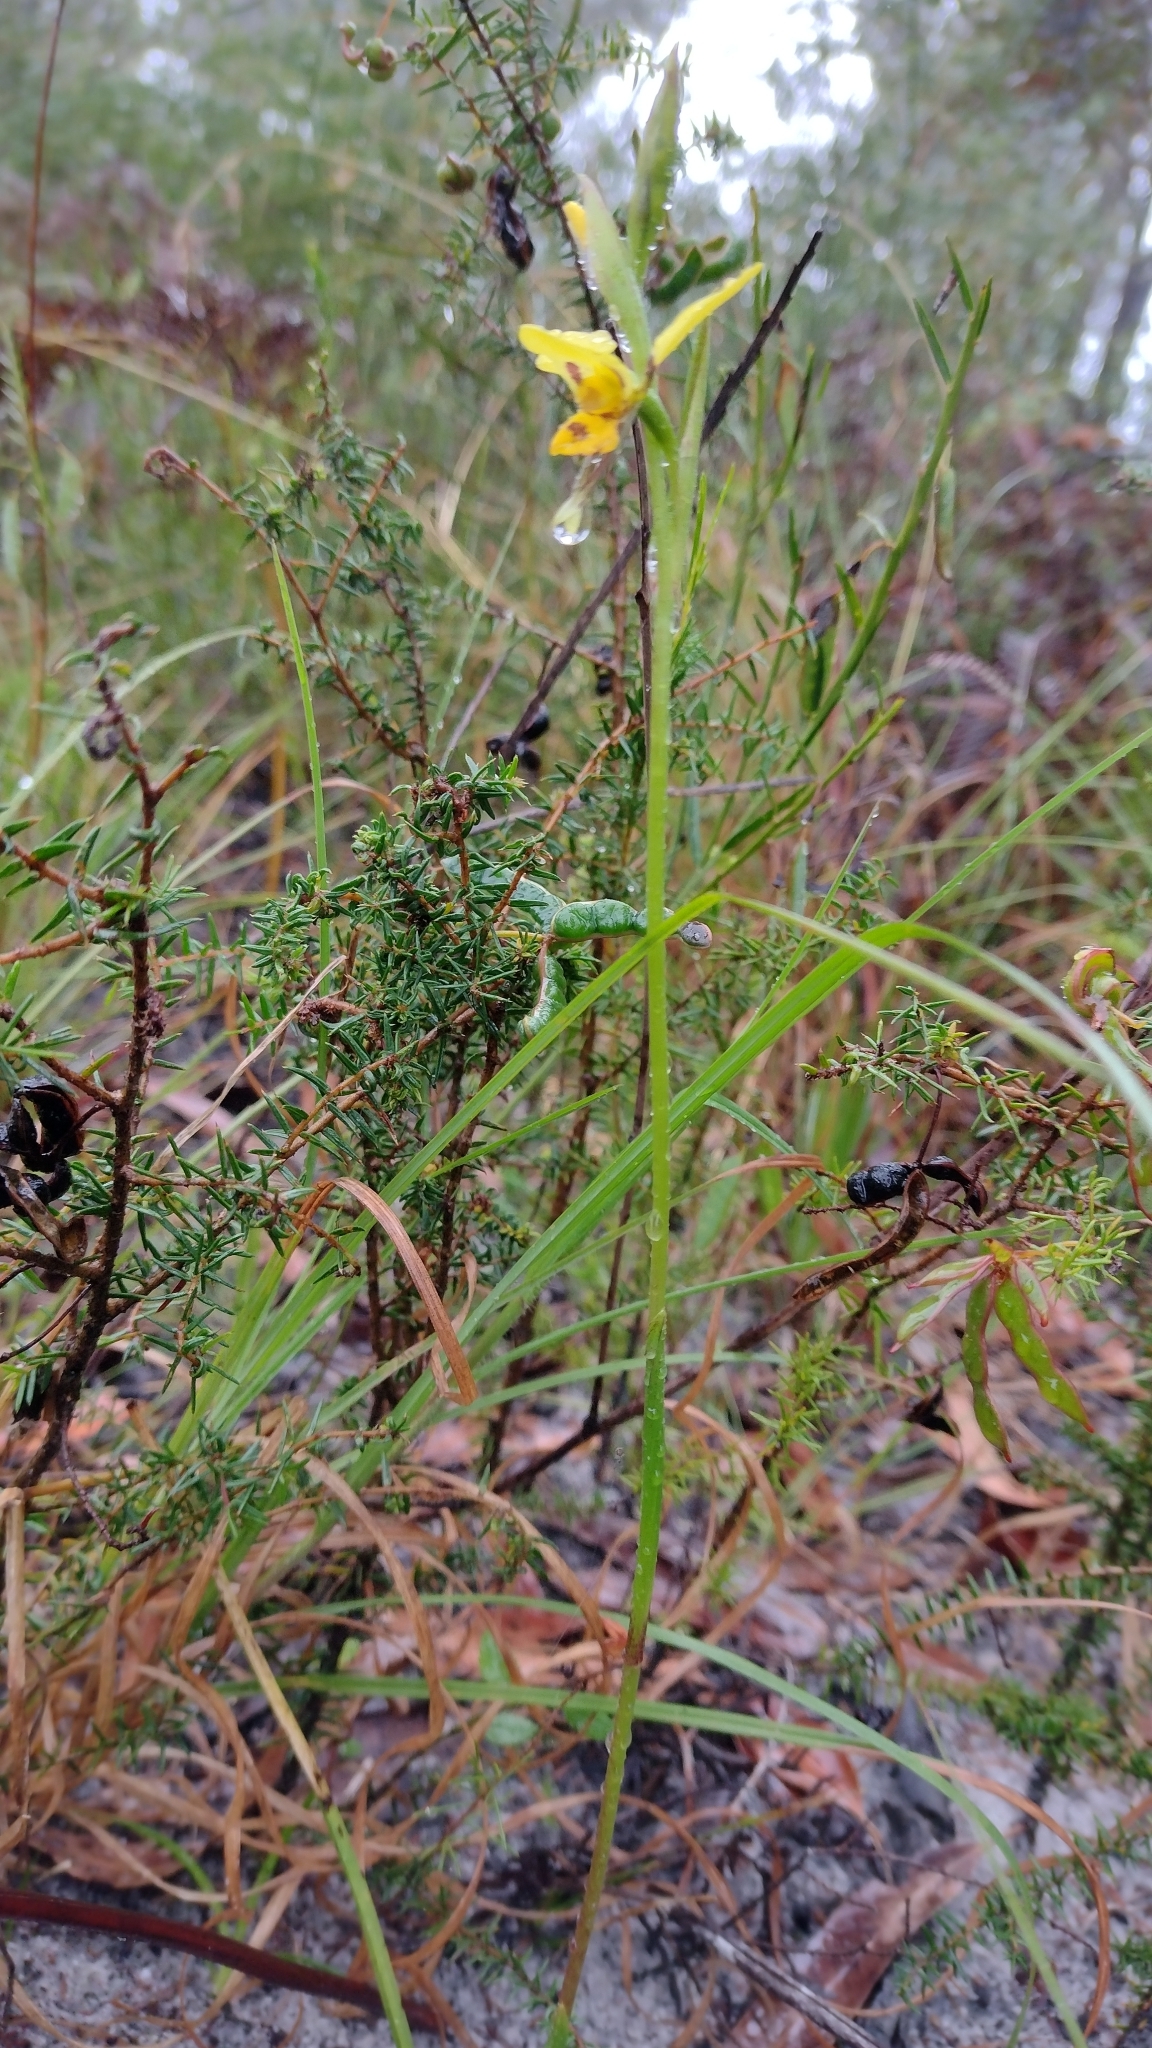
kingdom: Plantae
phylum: Tracheophyta
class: Liliopsida
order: Asparagales
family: Orchidaceae
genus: Diuris
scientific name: Diuris sulphurea
